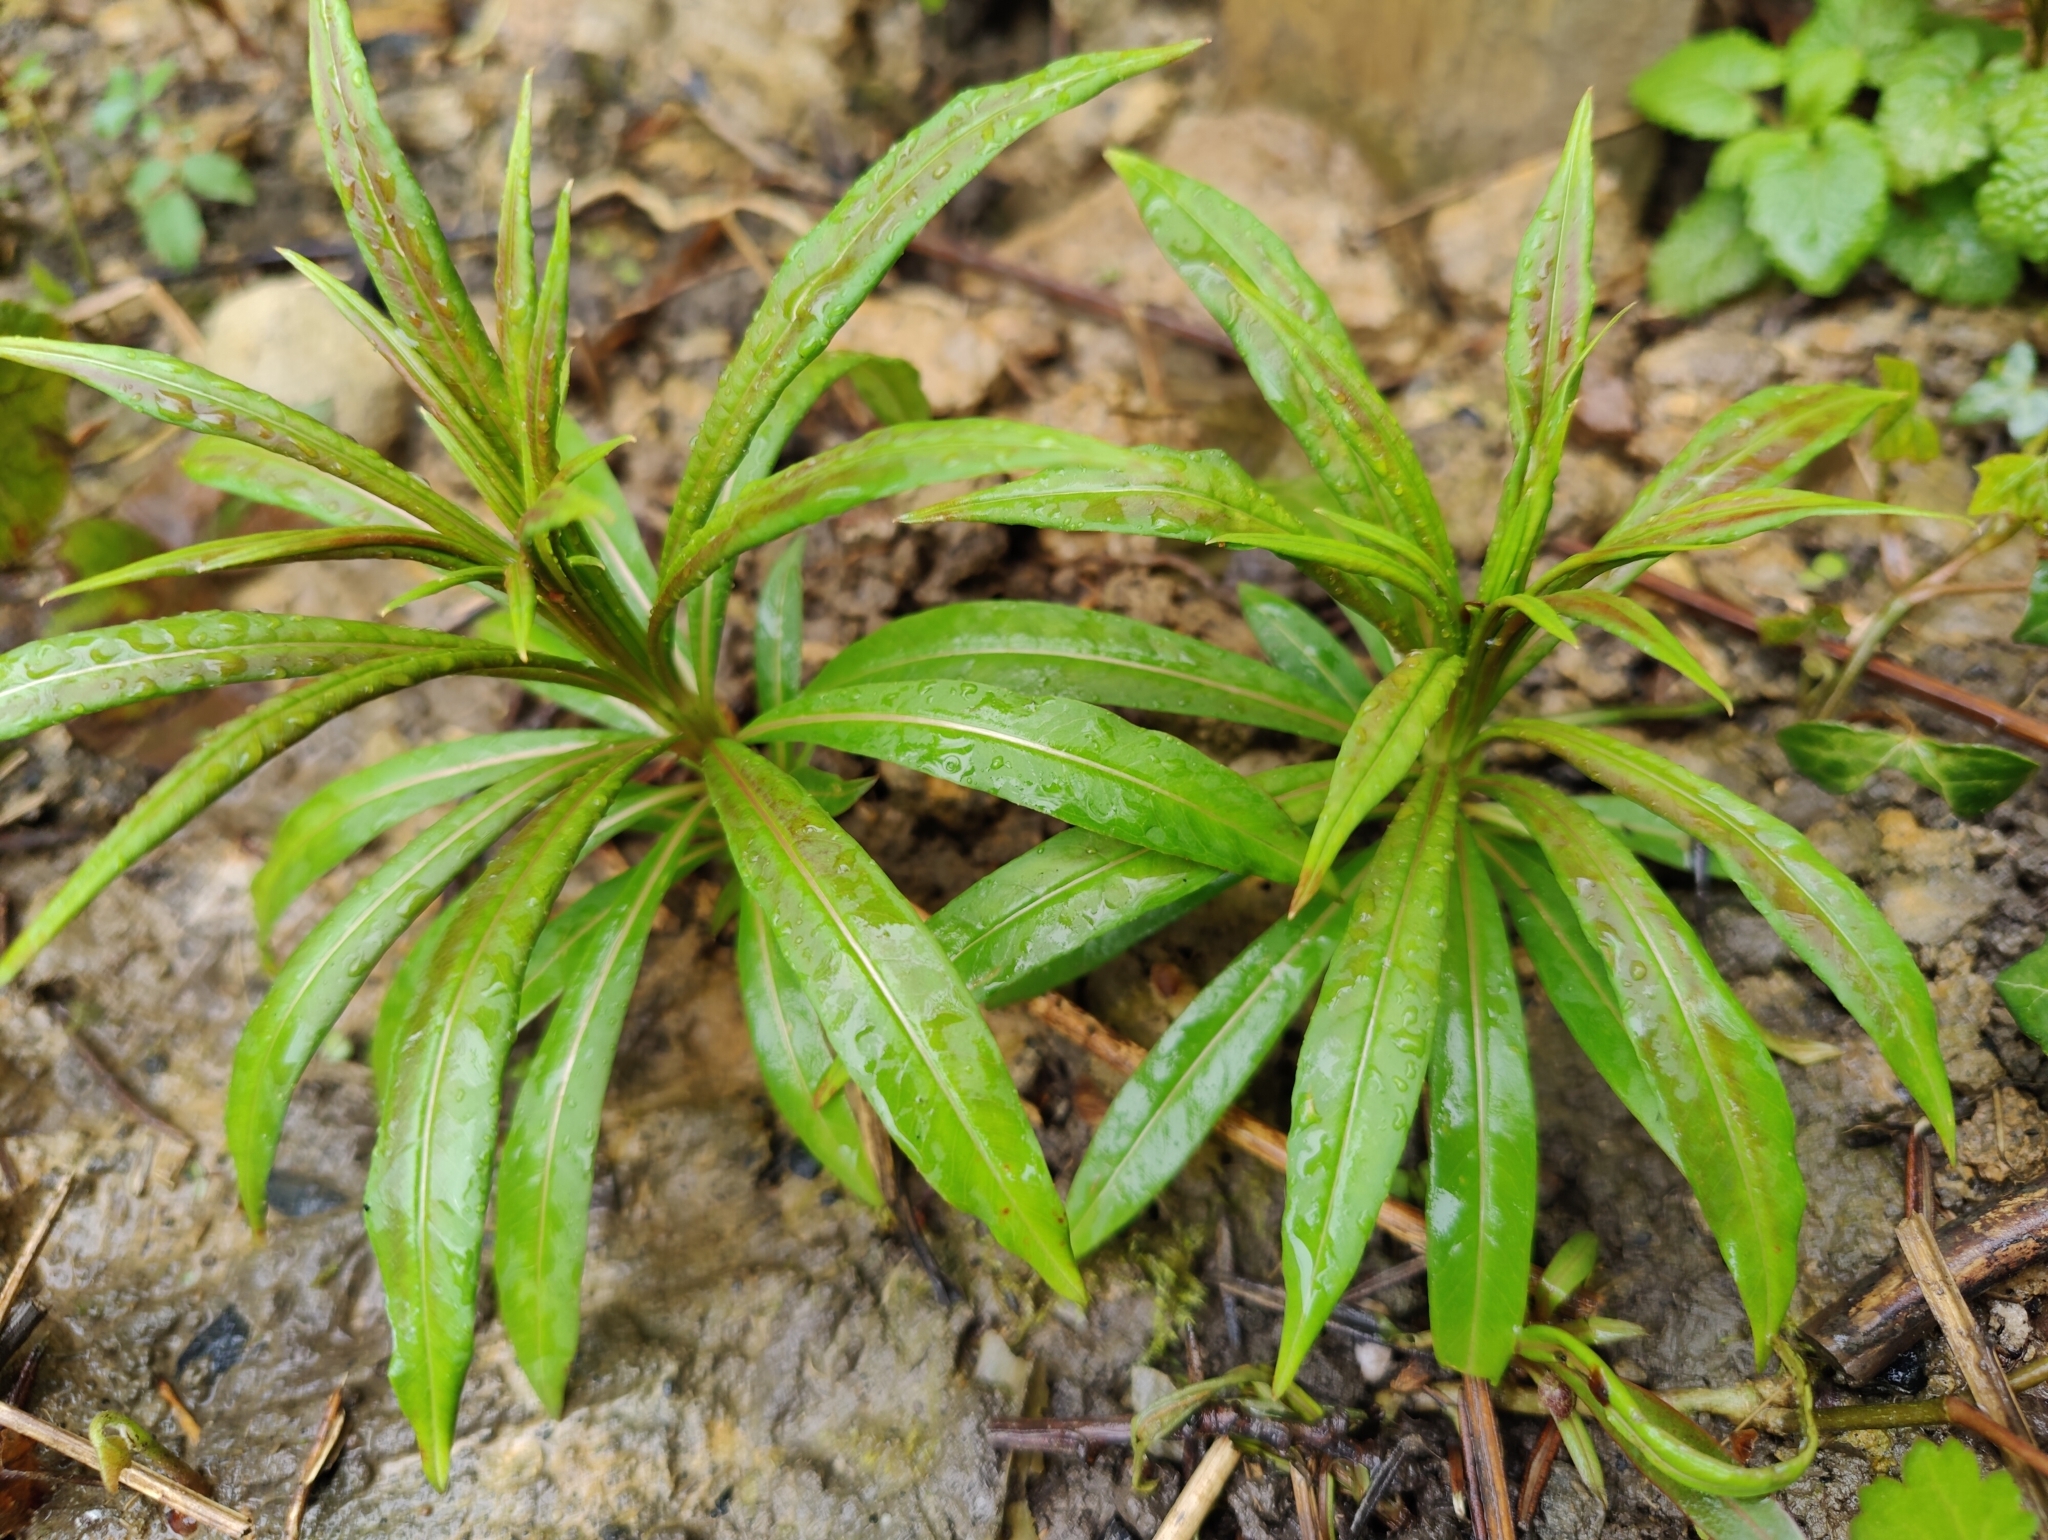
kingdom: Plantae
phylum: Tracheophyta
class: Magnoliopsida
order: Myrtales
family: Onagraceae
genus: Chamaenerion
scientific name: Chamaenerion angustifolium
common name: Fireweed
